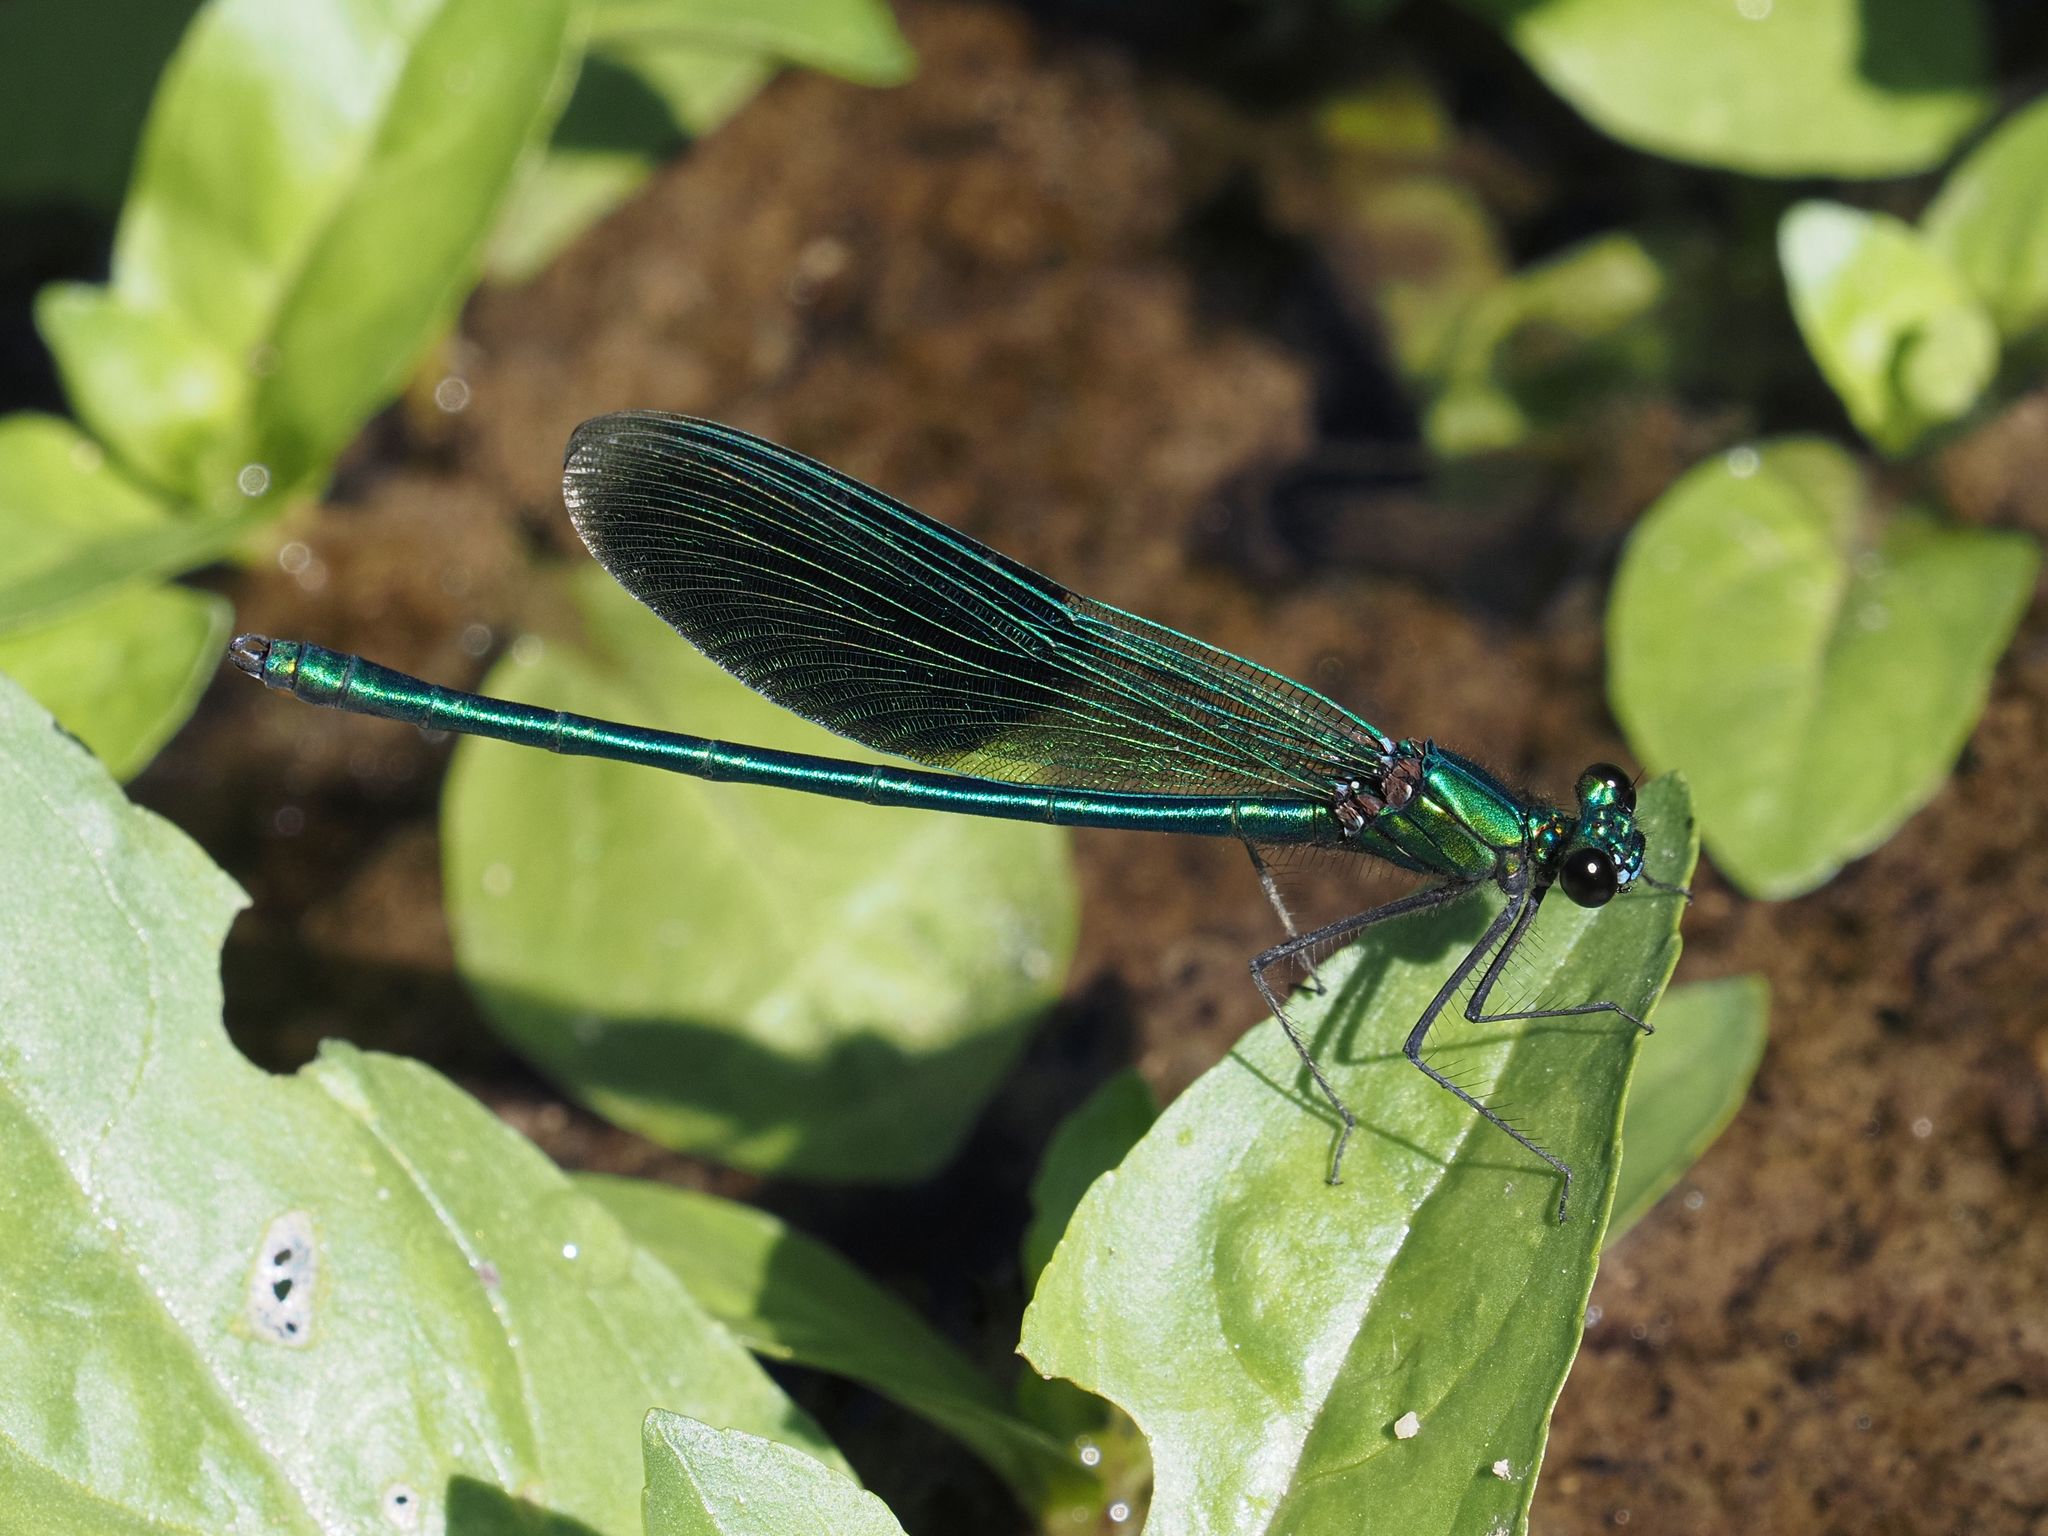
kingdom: Animalia
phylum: Arthropoda
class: Insecta
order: Odonata
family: Calopterygidae
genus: Calopteryx
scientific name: Calopteryx splendens
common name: Banded demoiselle
